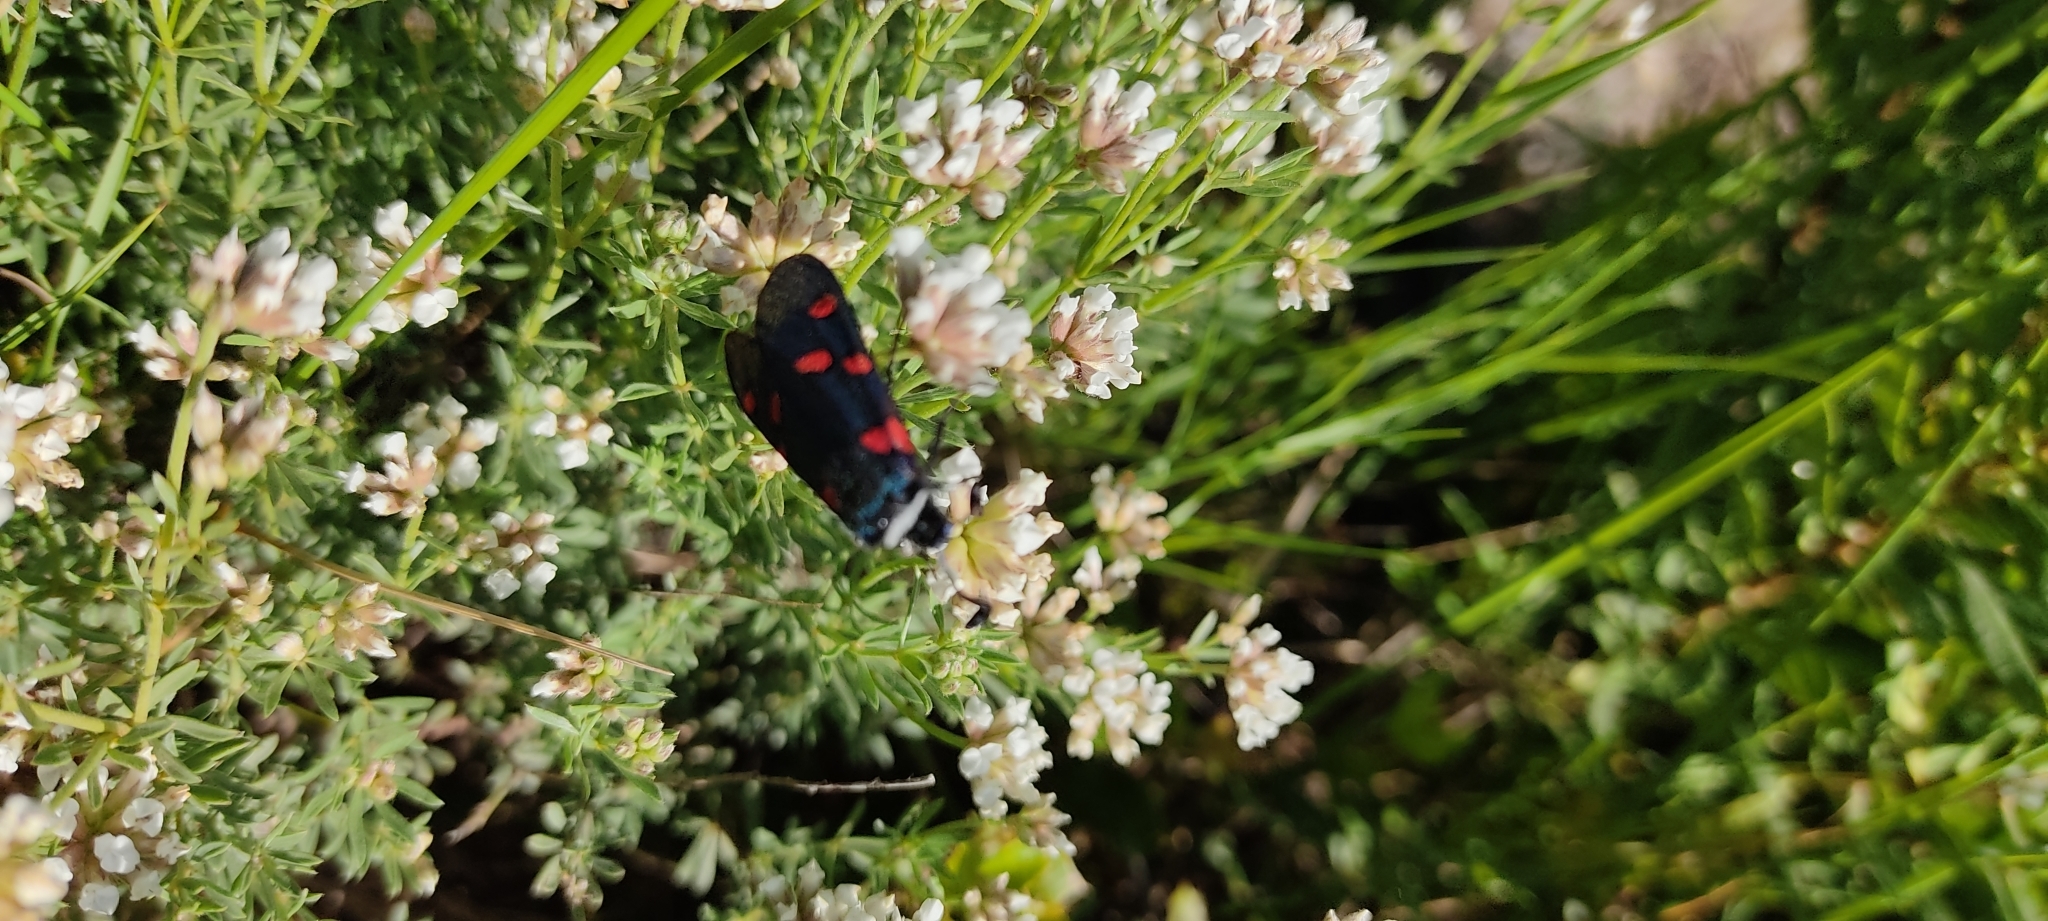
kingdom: Animalia
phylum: Arthropoda
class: Insecta
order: Lepidoptera
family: Zygaenidae
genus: Zygaena
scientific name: Zygaena lavandulae
